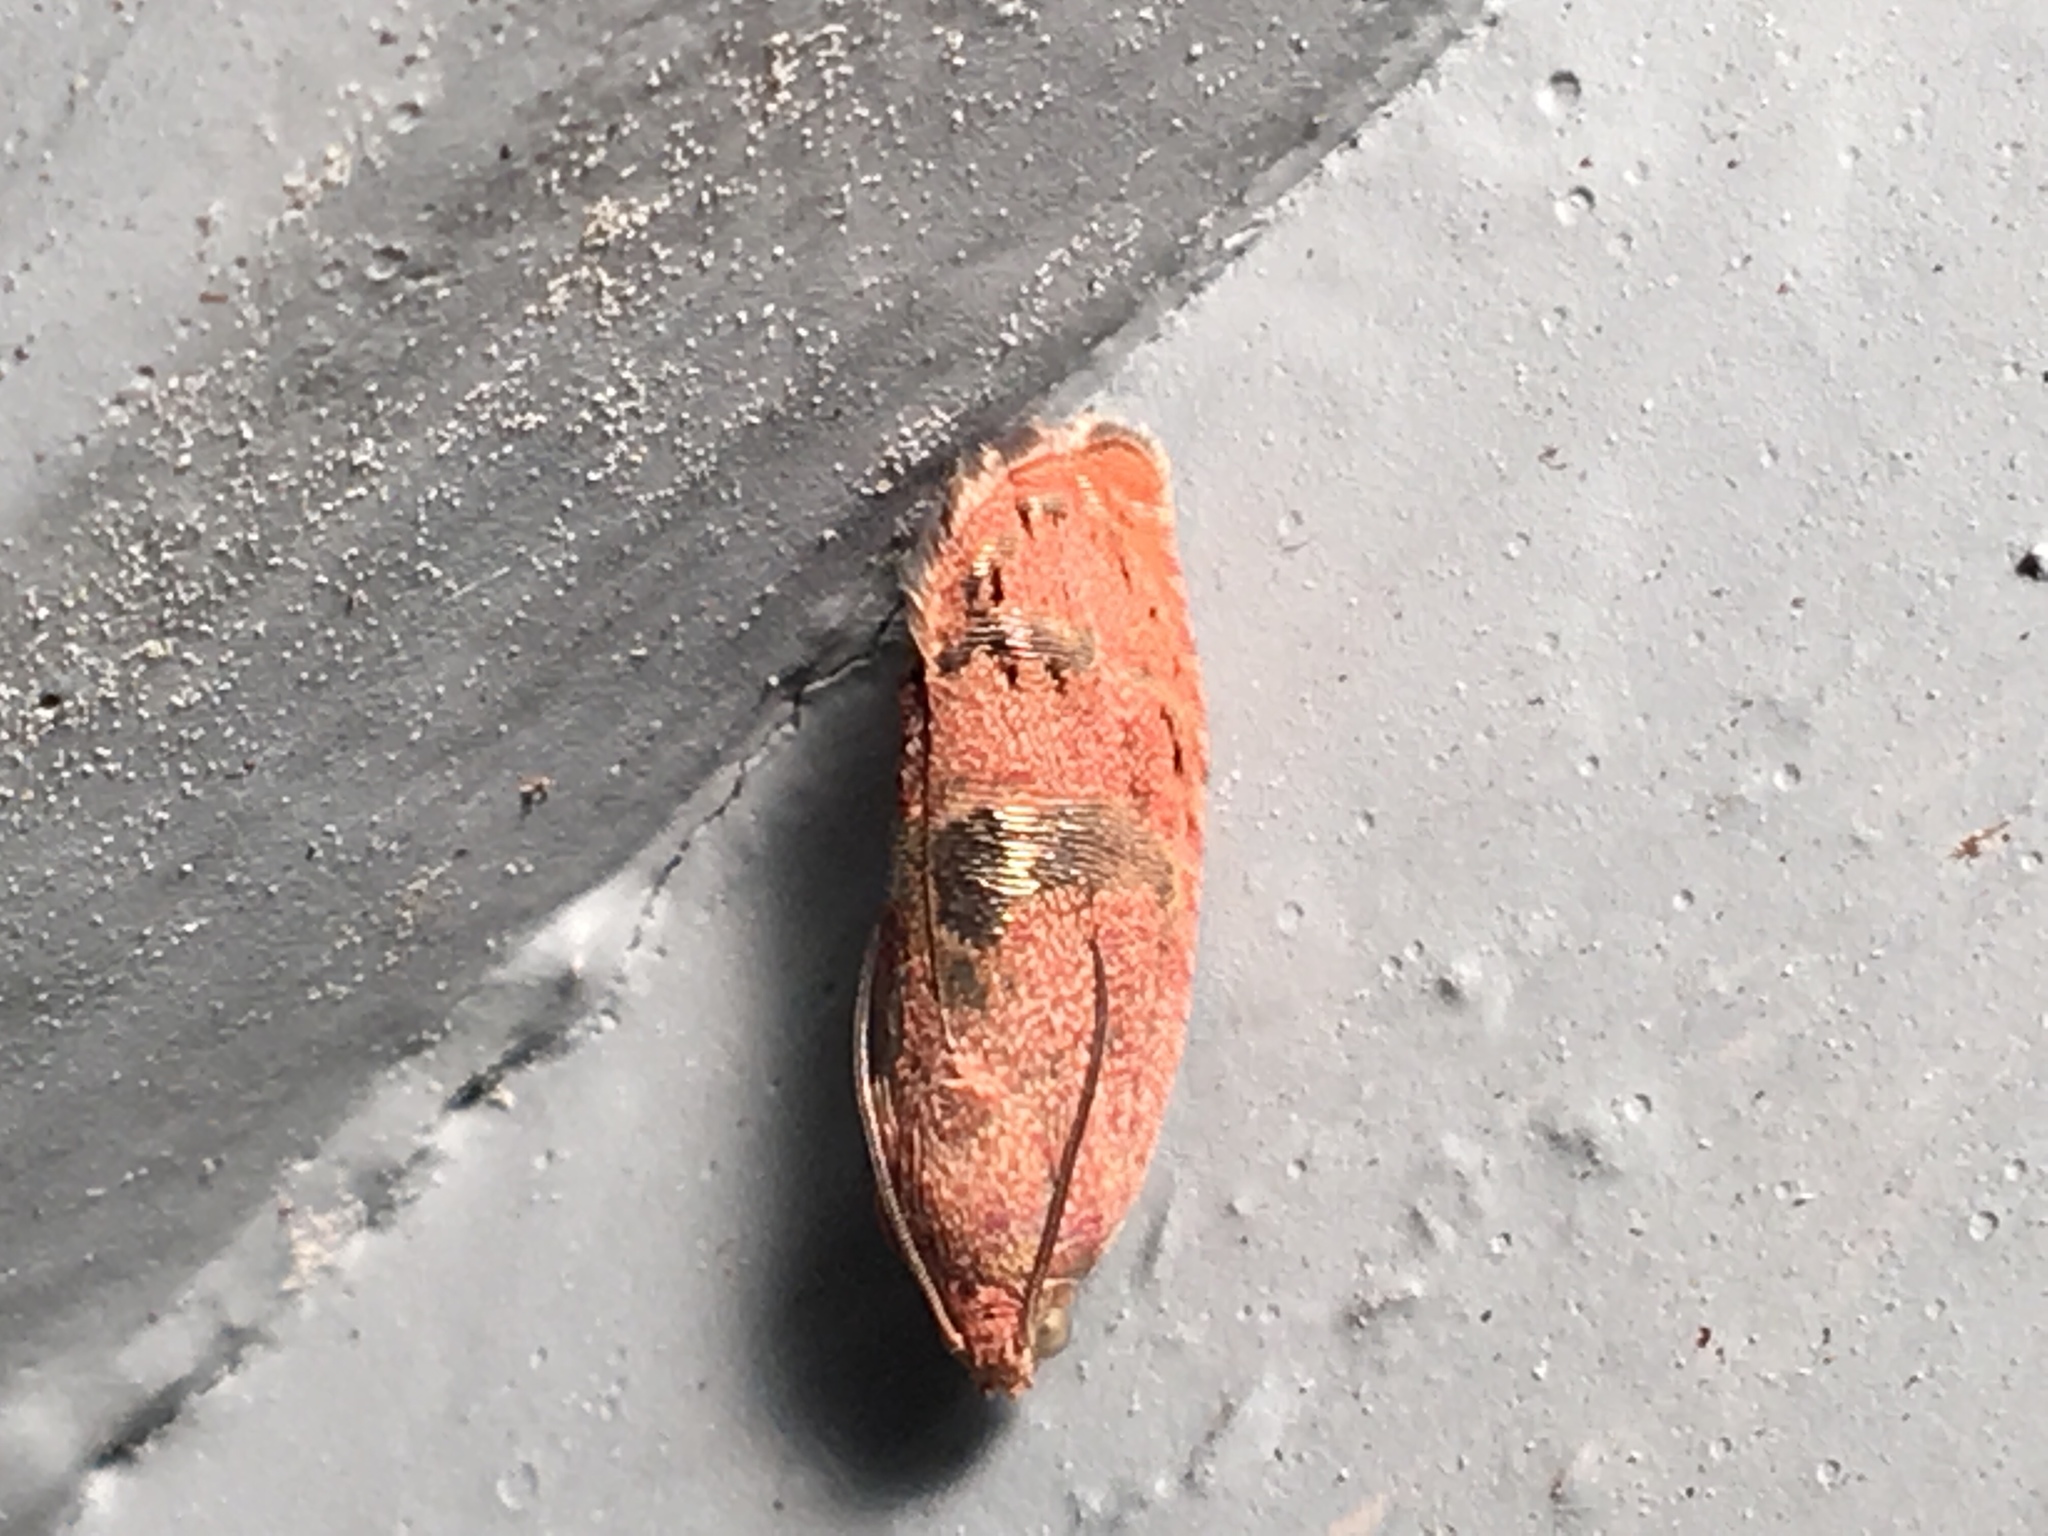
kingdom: Animalia
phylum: Arthropoda
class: Insecta
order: Lepidoptera
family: Tortricidae
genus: Cydia
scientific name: Cydia latiferreana
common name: Filbertworm moth
